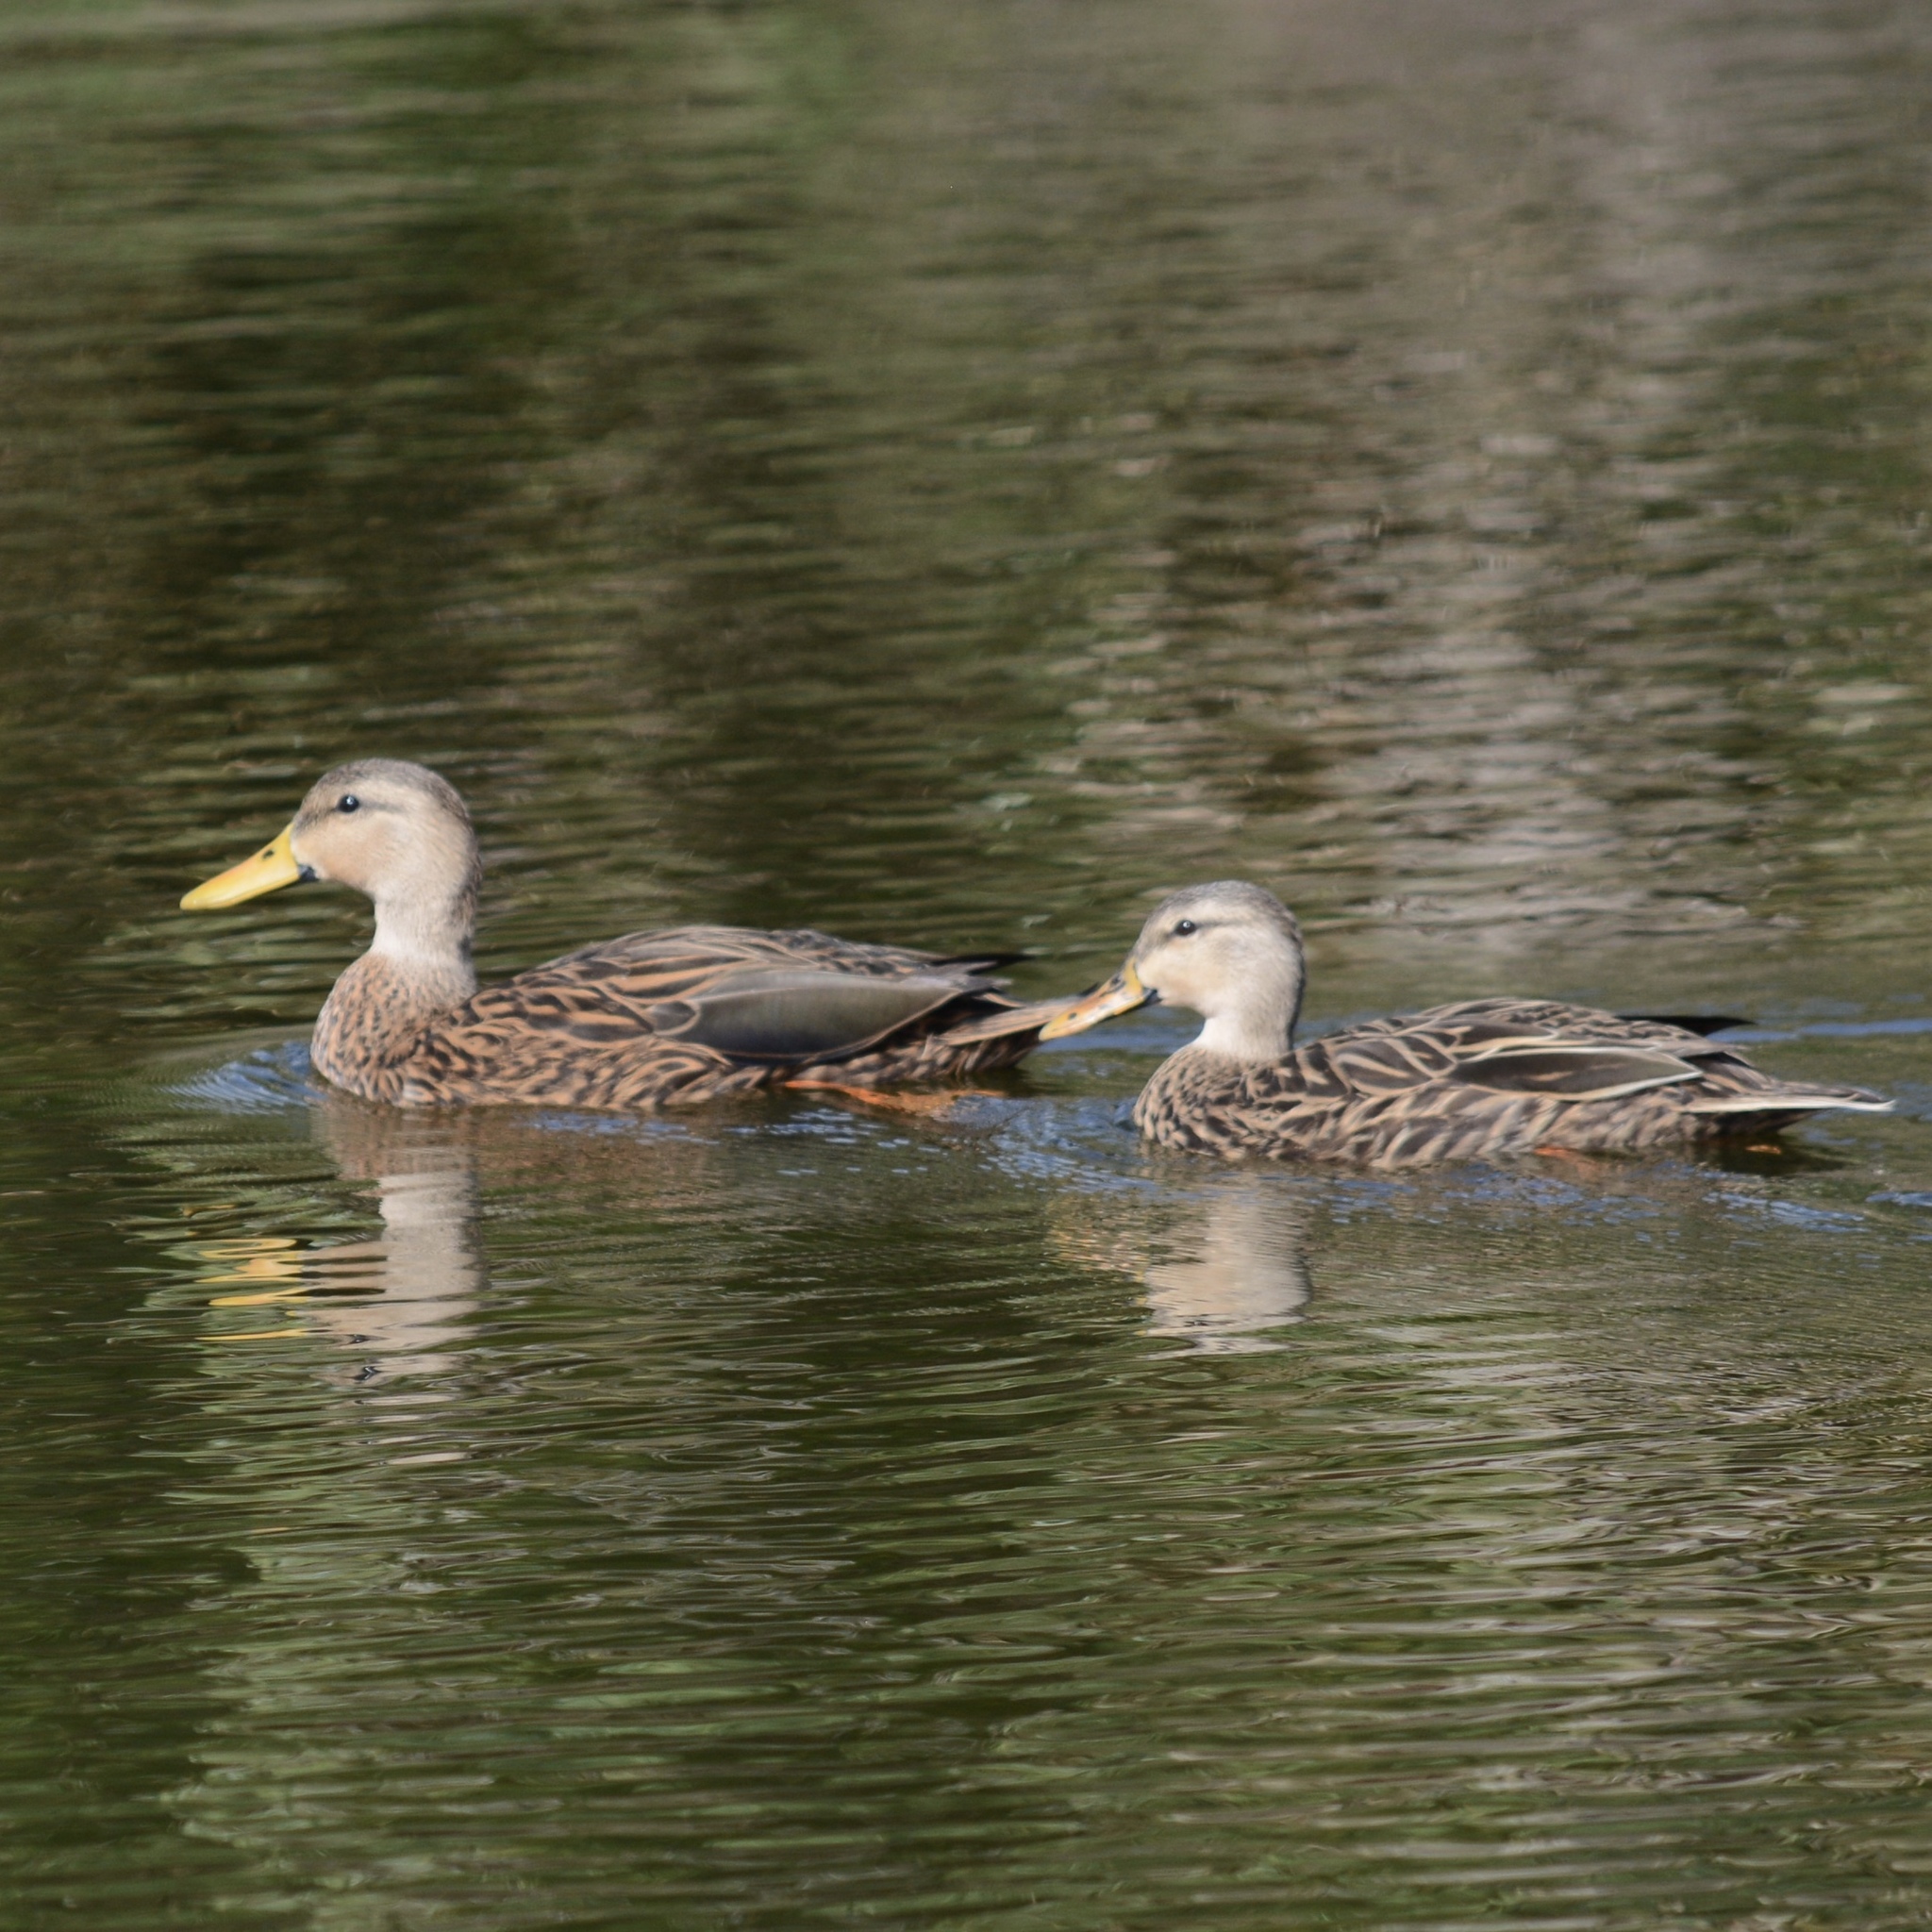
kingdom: Animalia
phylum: Chordata
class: Aves
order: Anseriformes
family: Anatidae
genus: Anas
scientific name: Anas fulvigula
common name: Mottled duck
